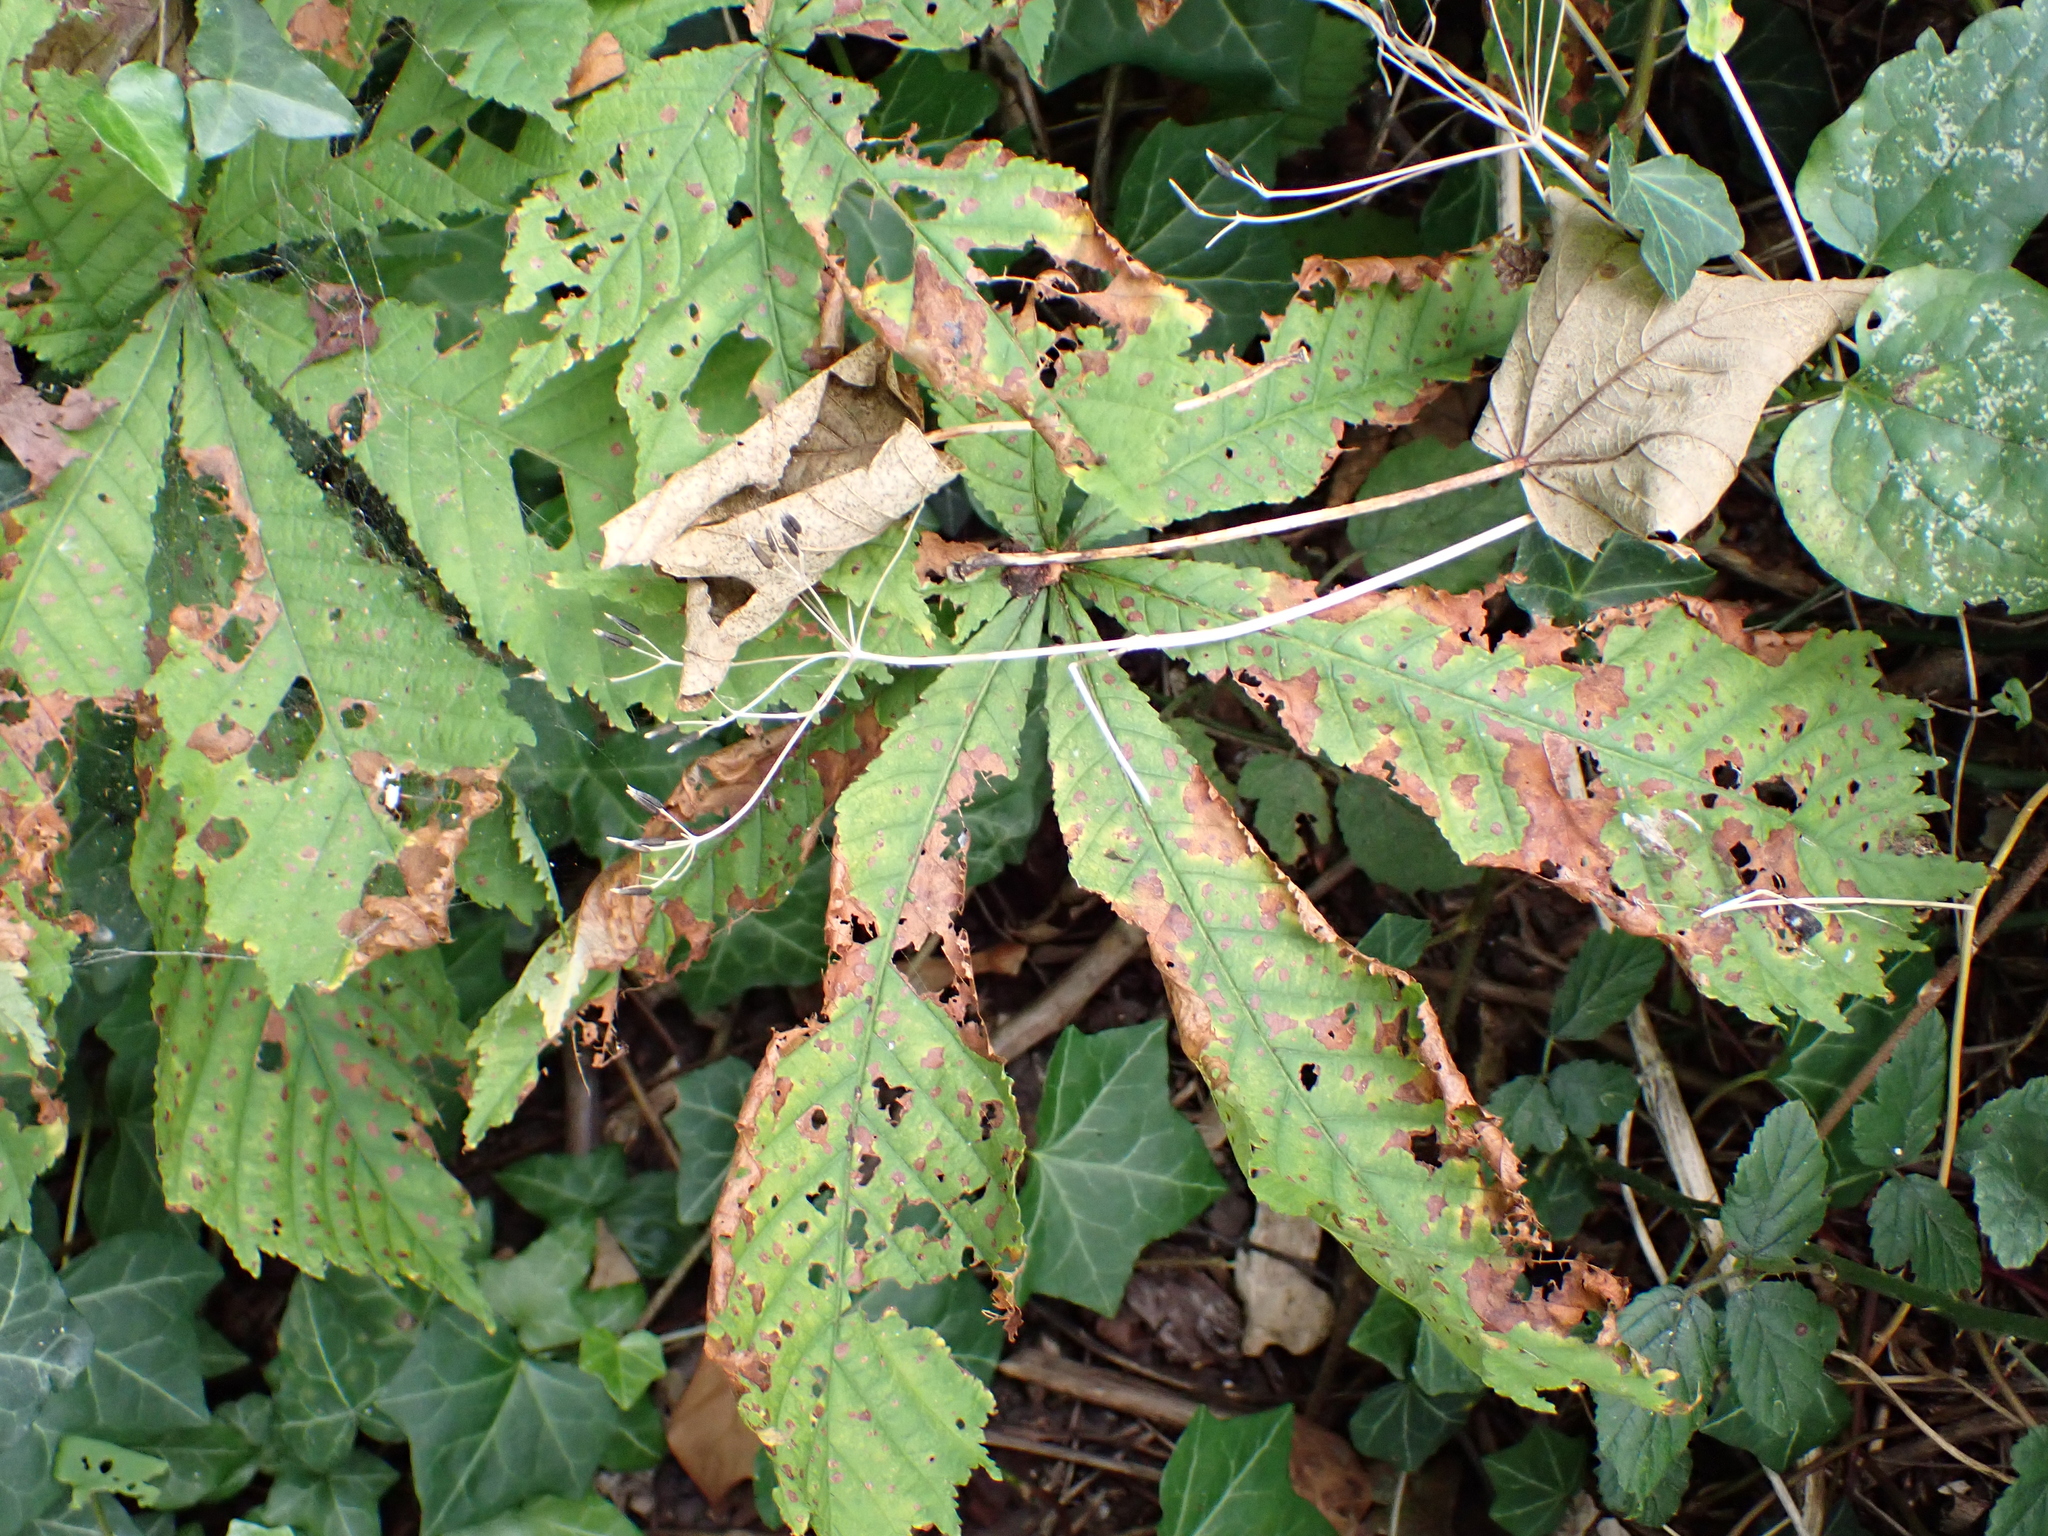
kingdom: Plantae
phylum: Tracheophyta
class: Magnoliopsida
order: Sapindales
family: Sapindaceae
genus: Aesculus
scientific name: Aesculus hippocastanum
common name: Horse-chestnut
